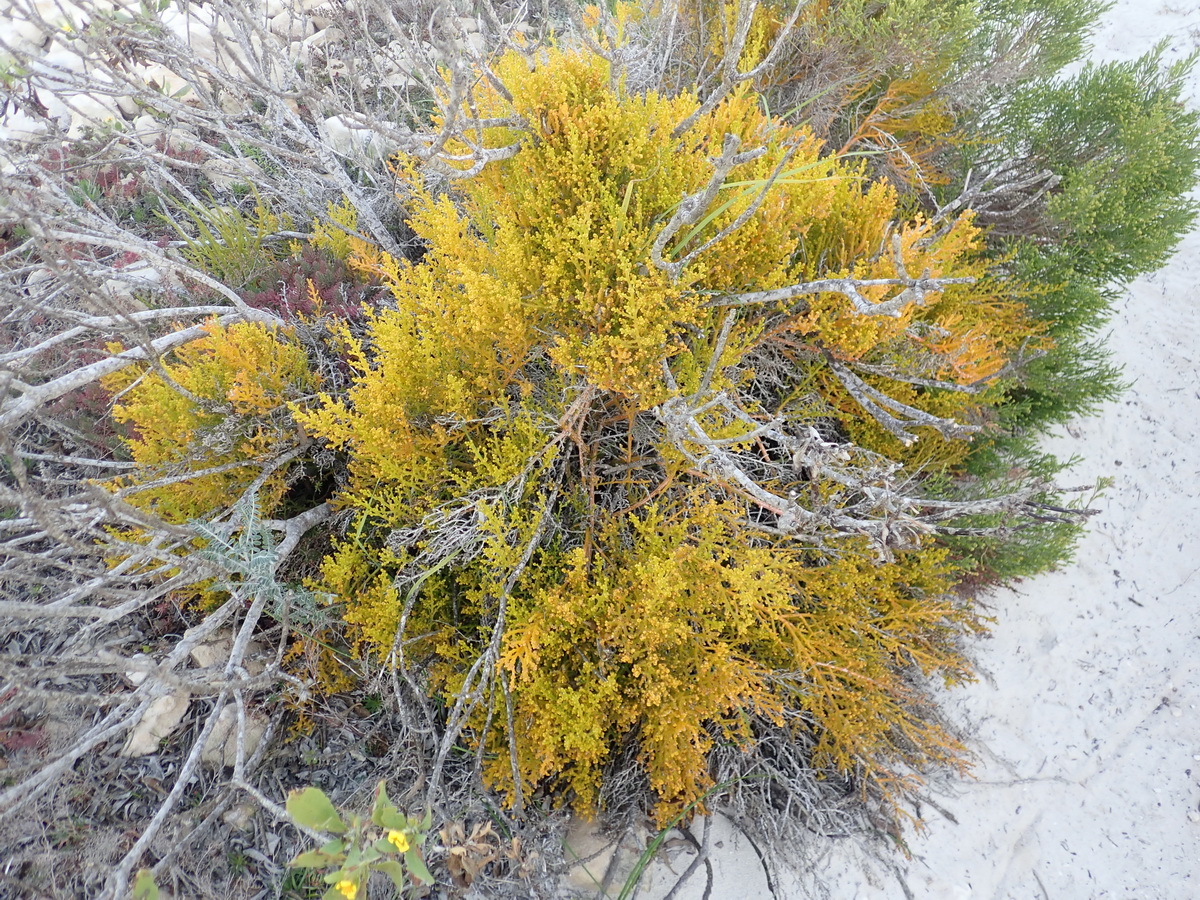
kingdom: Plantae
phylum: Tracheophyta
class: Magnoliopsida
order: Santalales
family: Thesiaceae
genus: Thesium
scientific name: Thesium fragile
